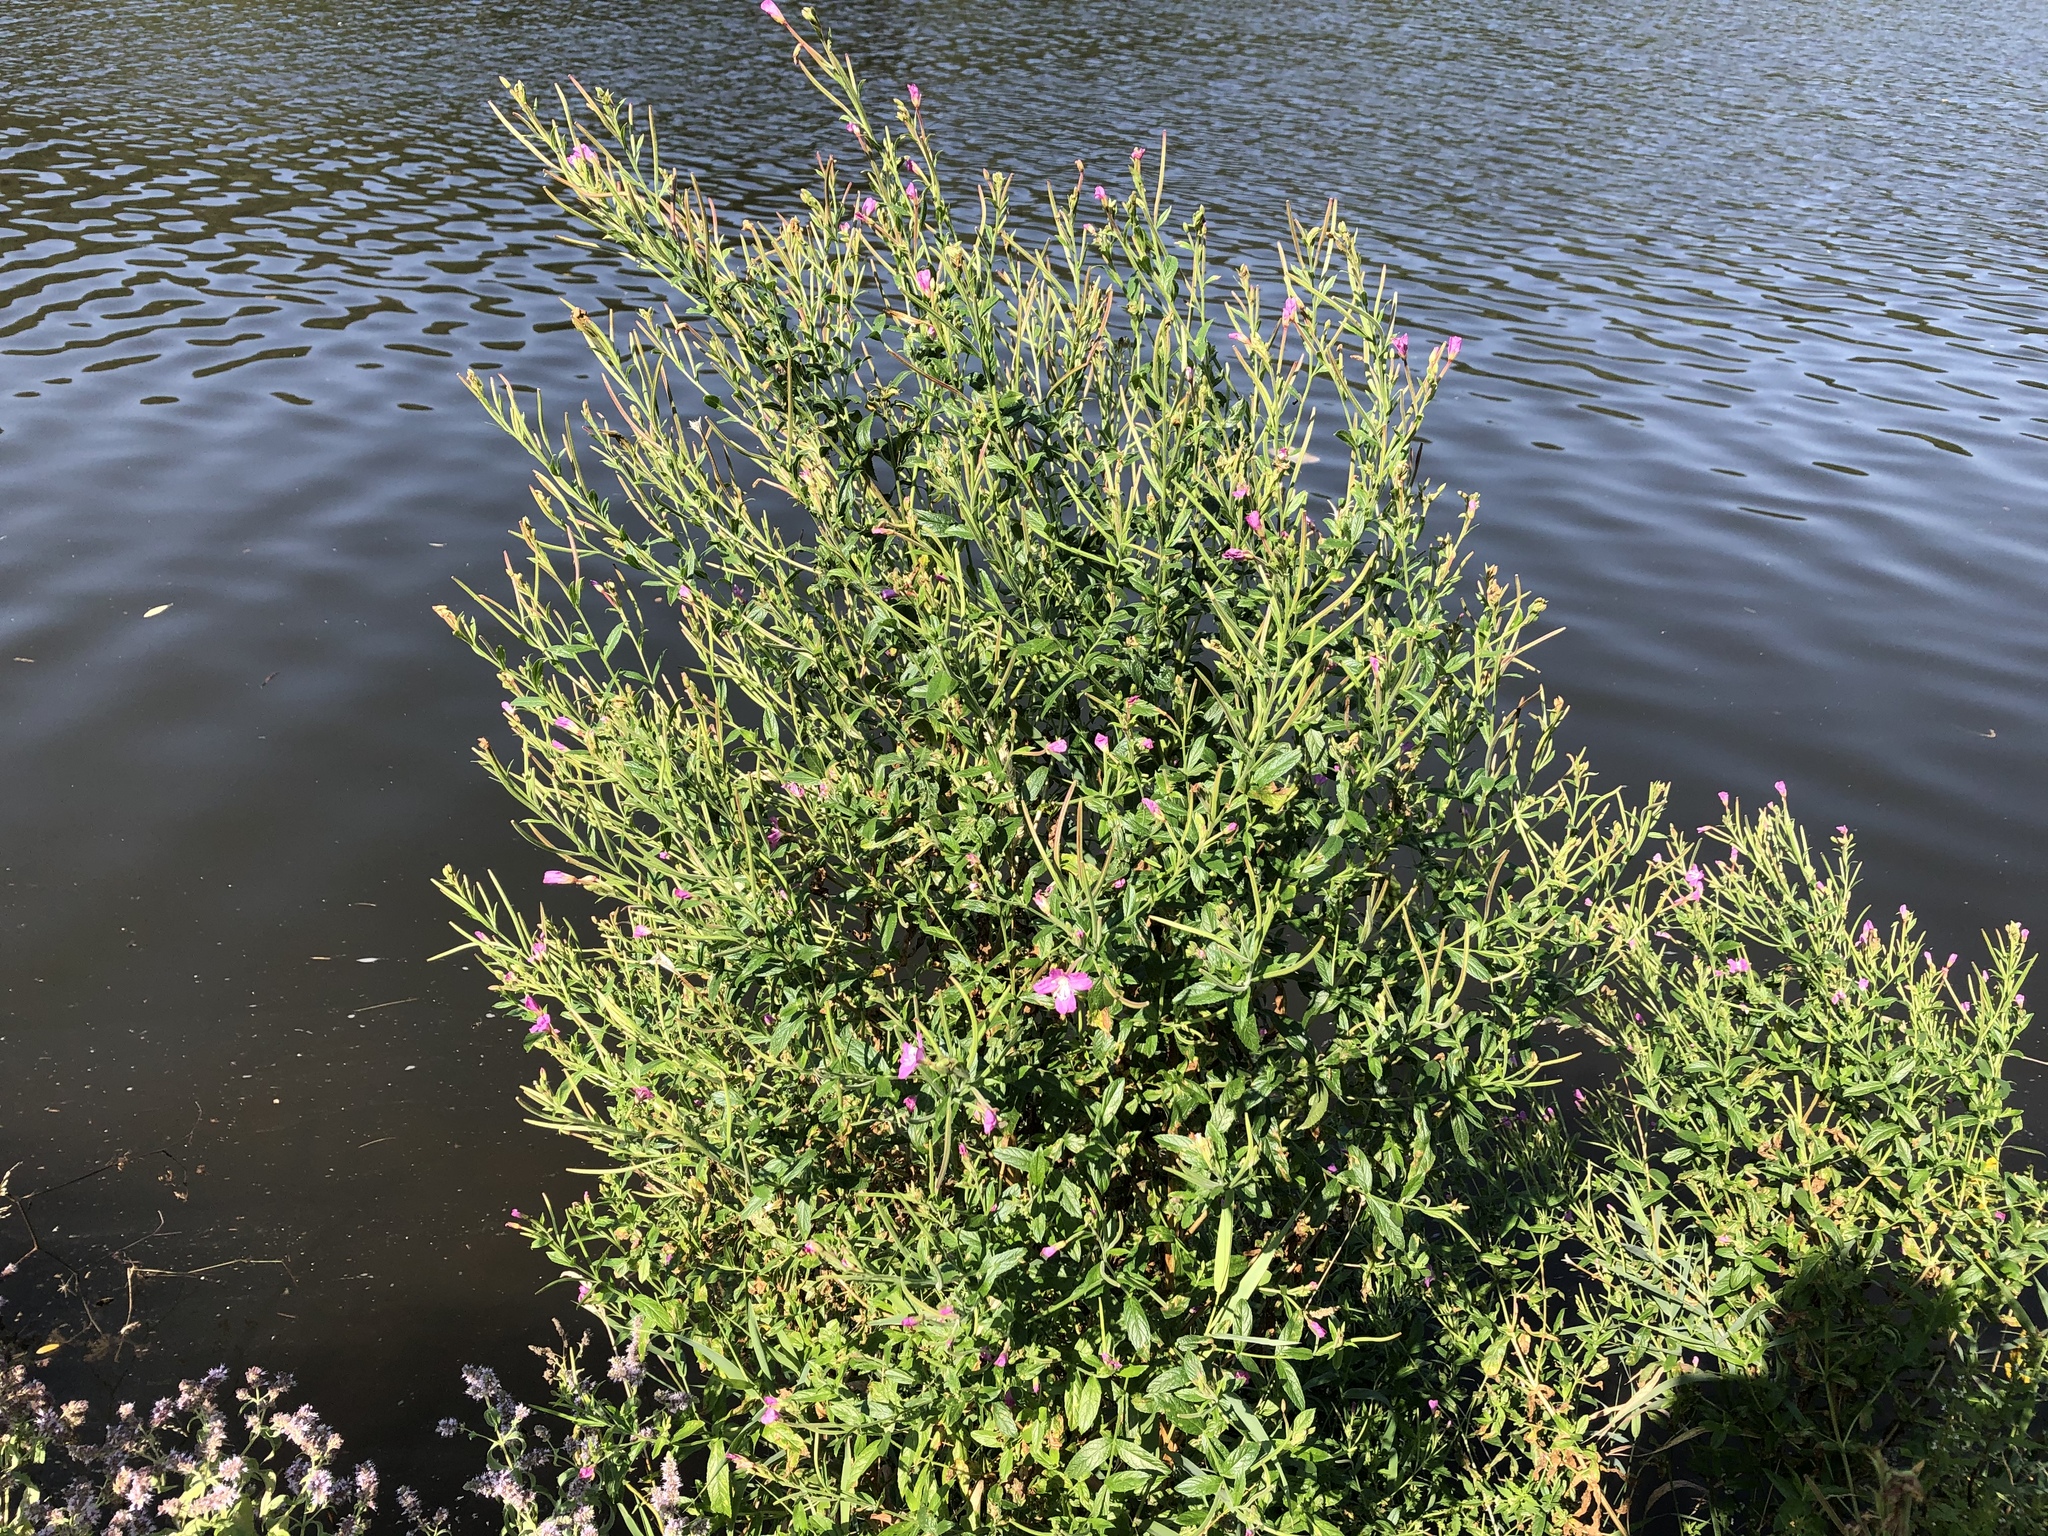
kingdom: Plantae
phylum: Tracheophyta
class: Magnoliopsida
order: Myrtales
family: Onagraceae
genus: Epilobium
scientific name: Epilobium hirsutum
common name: Great willowherb
